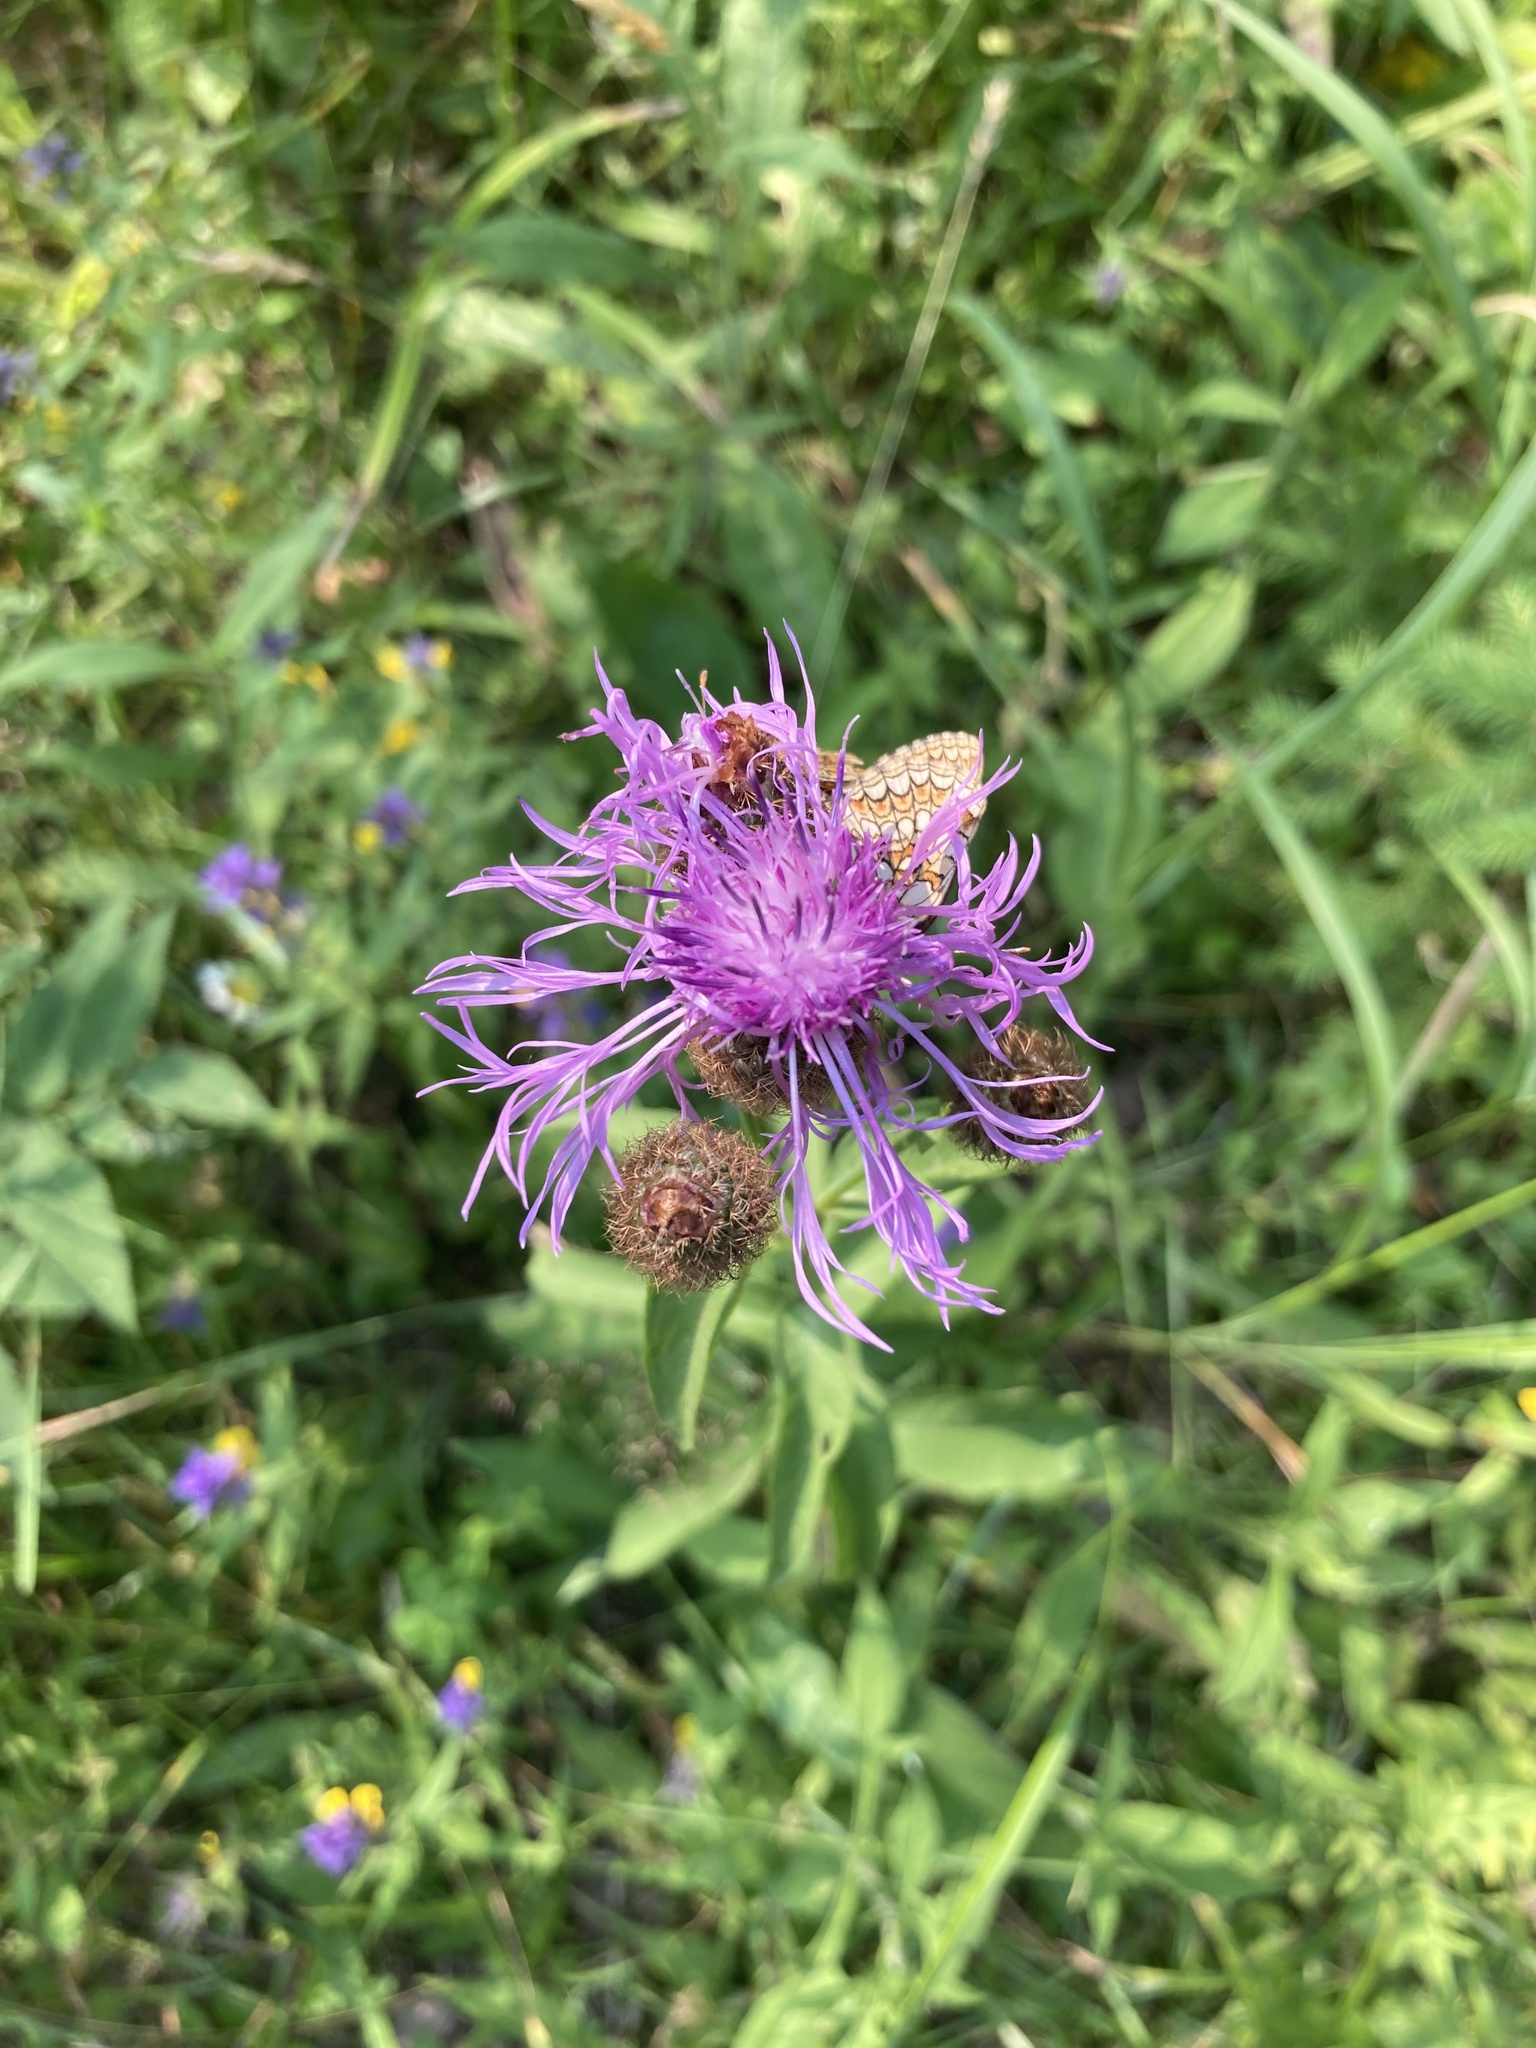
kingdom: Plantae
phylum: Tracheophyta
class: Magnoliopsida
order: Asterales
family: Asteraceae
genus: Centaurea
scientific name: Centaurea phrygia
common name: Wig knapweed
